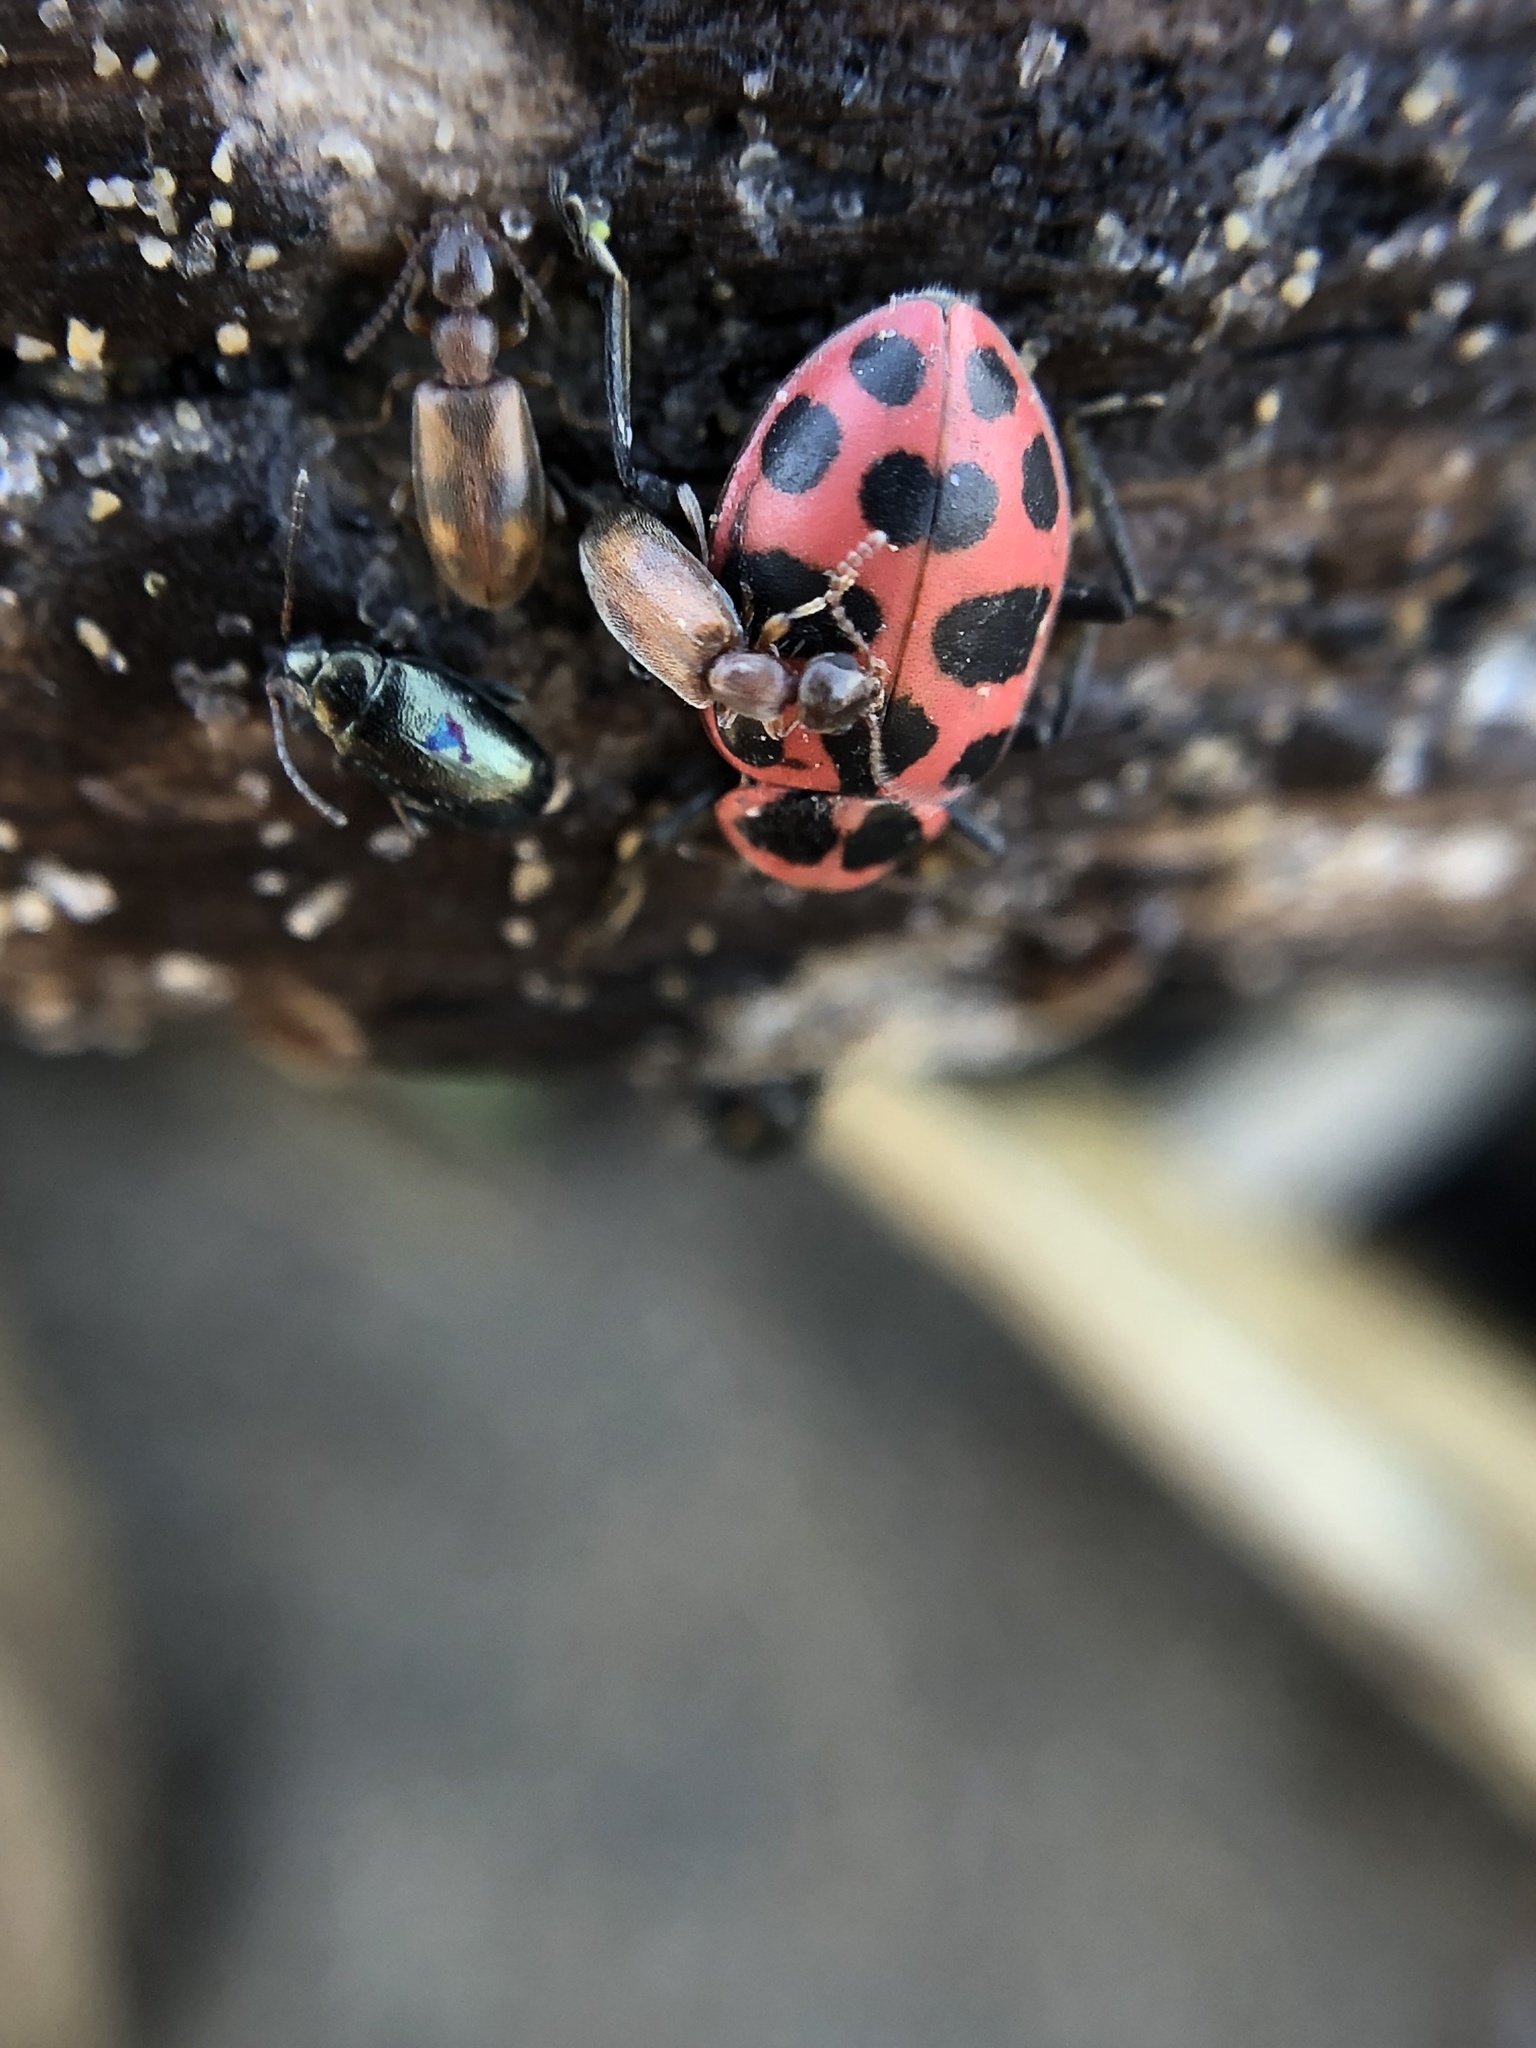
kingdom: Animalia
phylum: Arthropoda
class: Insecta
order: Coleoptera
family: Coccinellidae
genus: Coleomegilla
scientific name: Coleomegilla maculata
